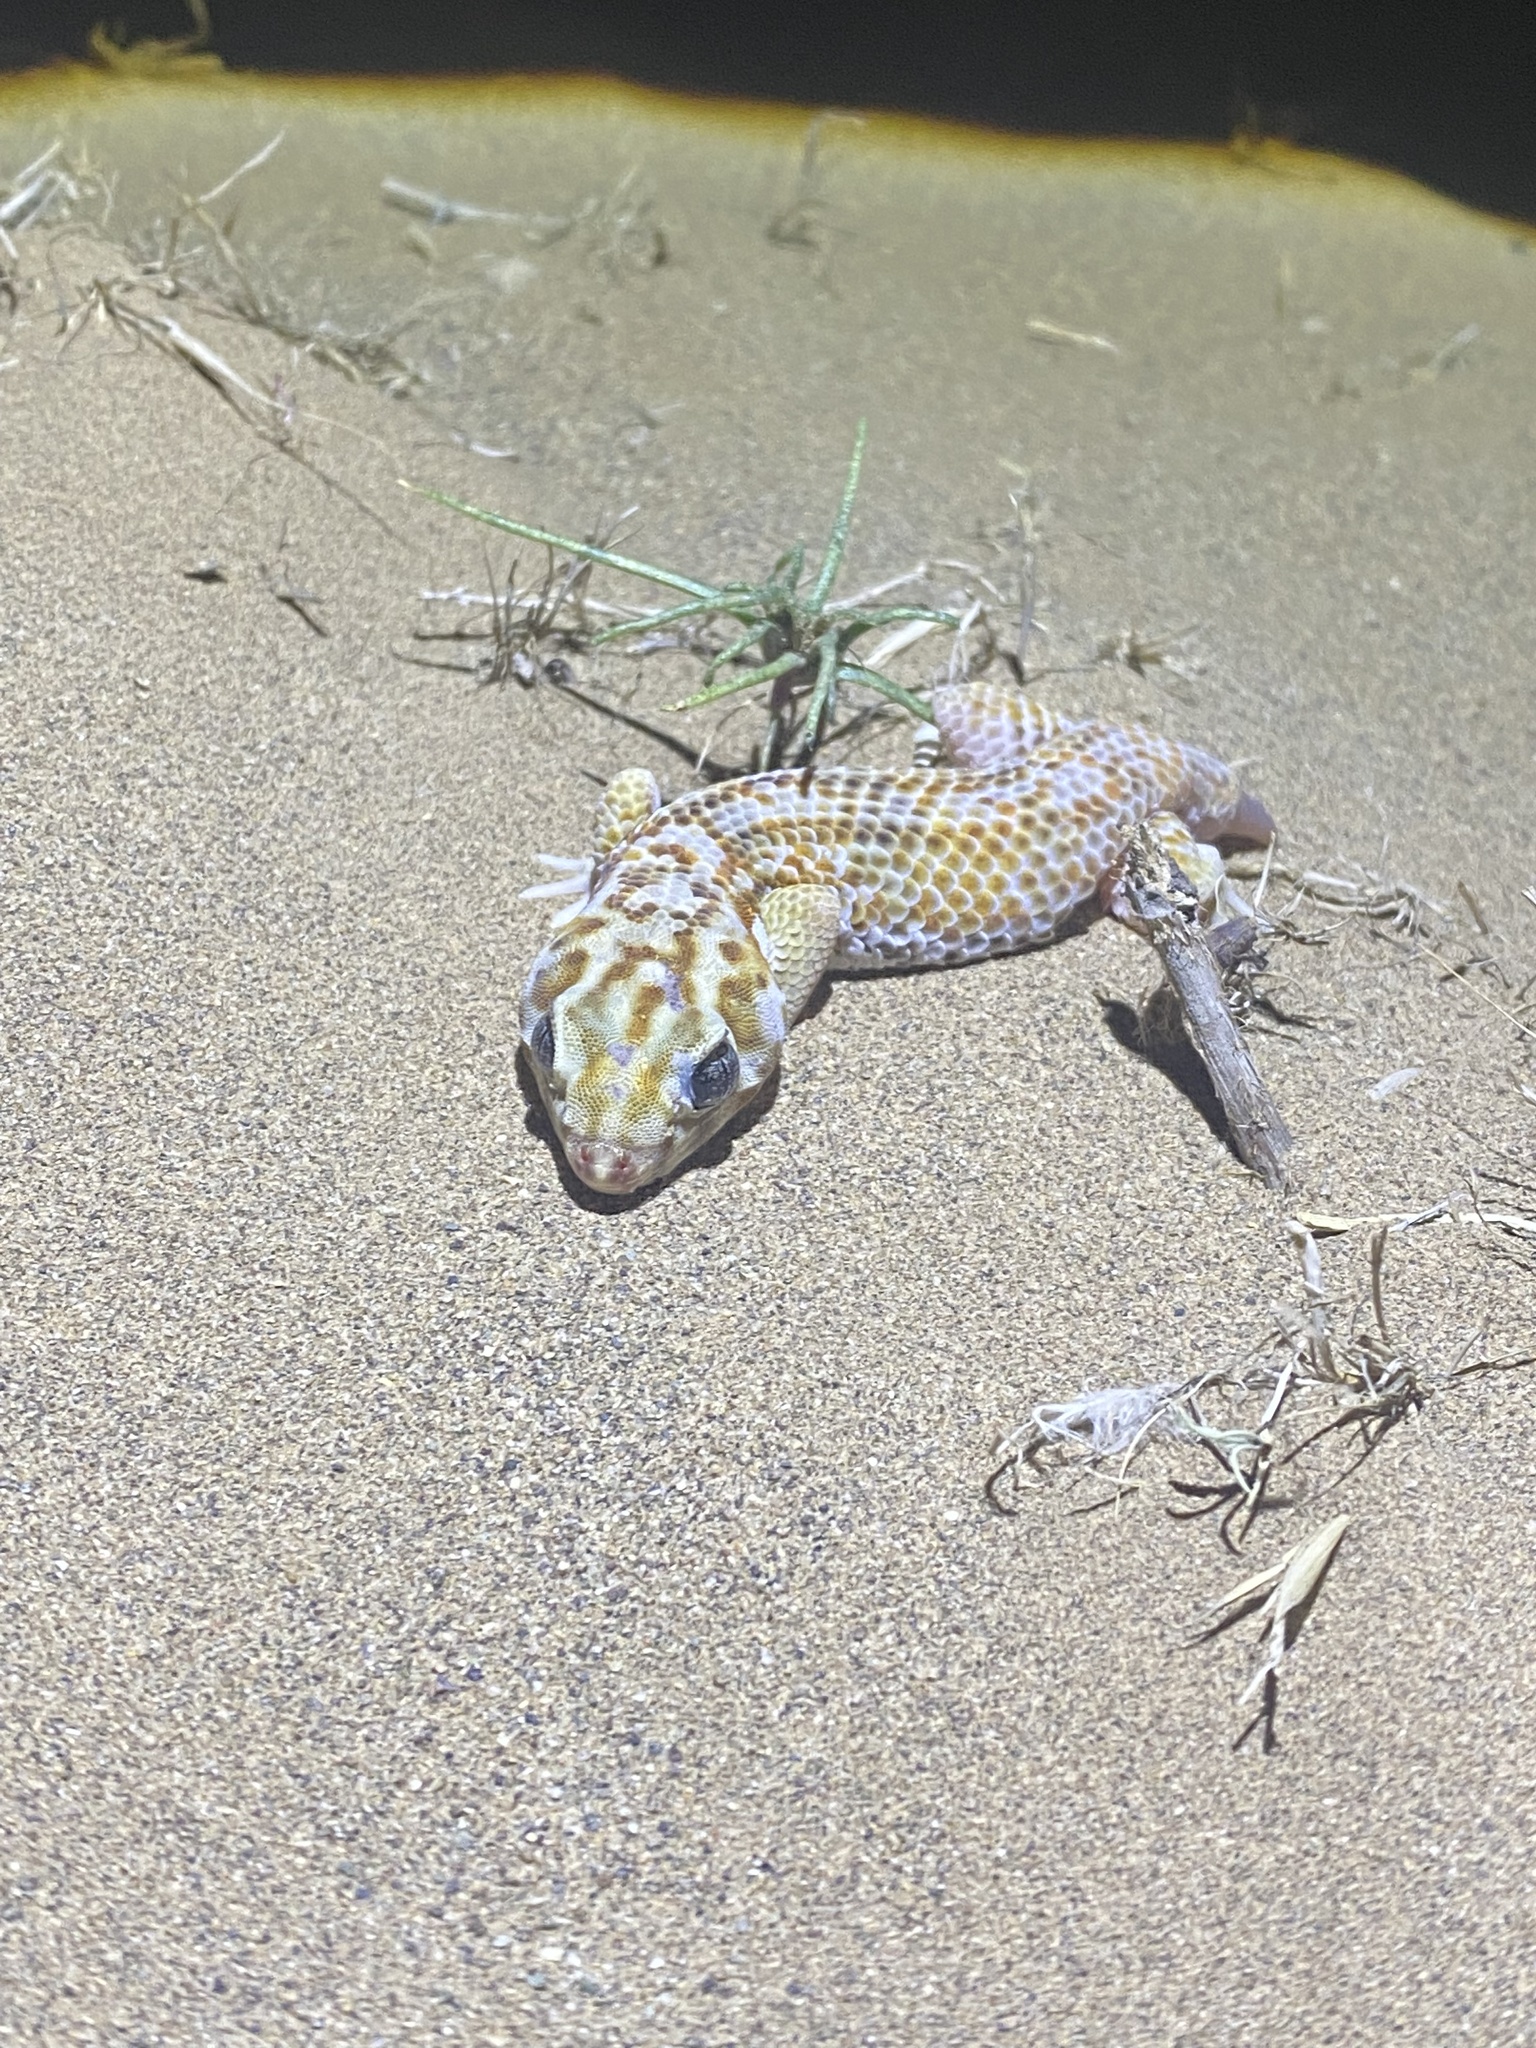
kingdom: Animalia
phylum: Chordata
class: Squamata
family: Sphaerodactylidae
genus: Teratoscincus
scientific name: Teratoscincus keyserlingii
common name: Frog-eyed gecko
